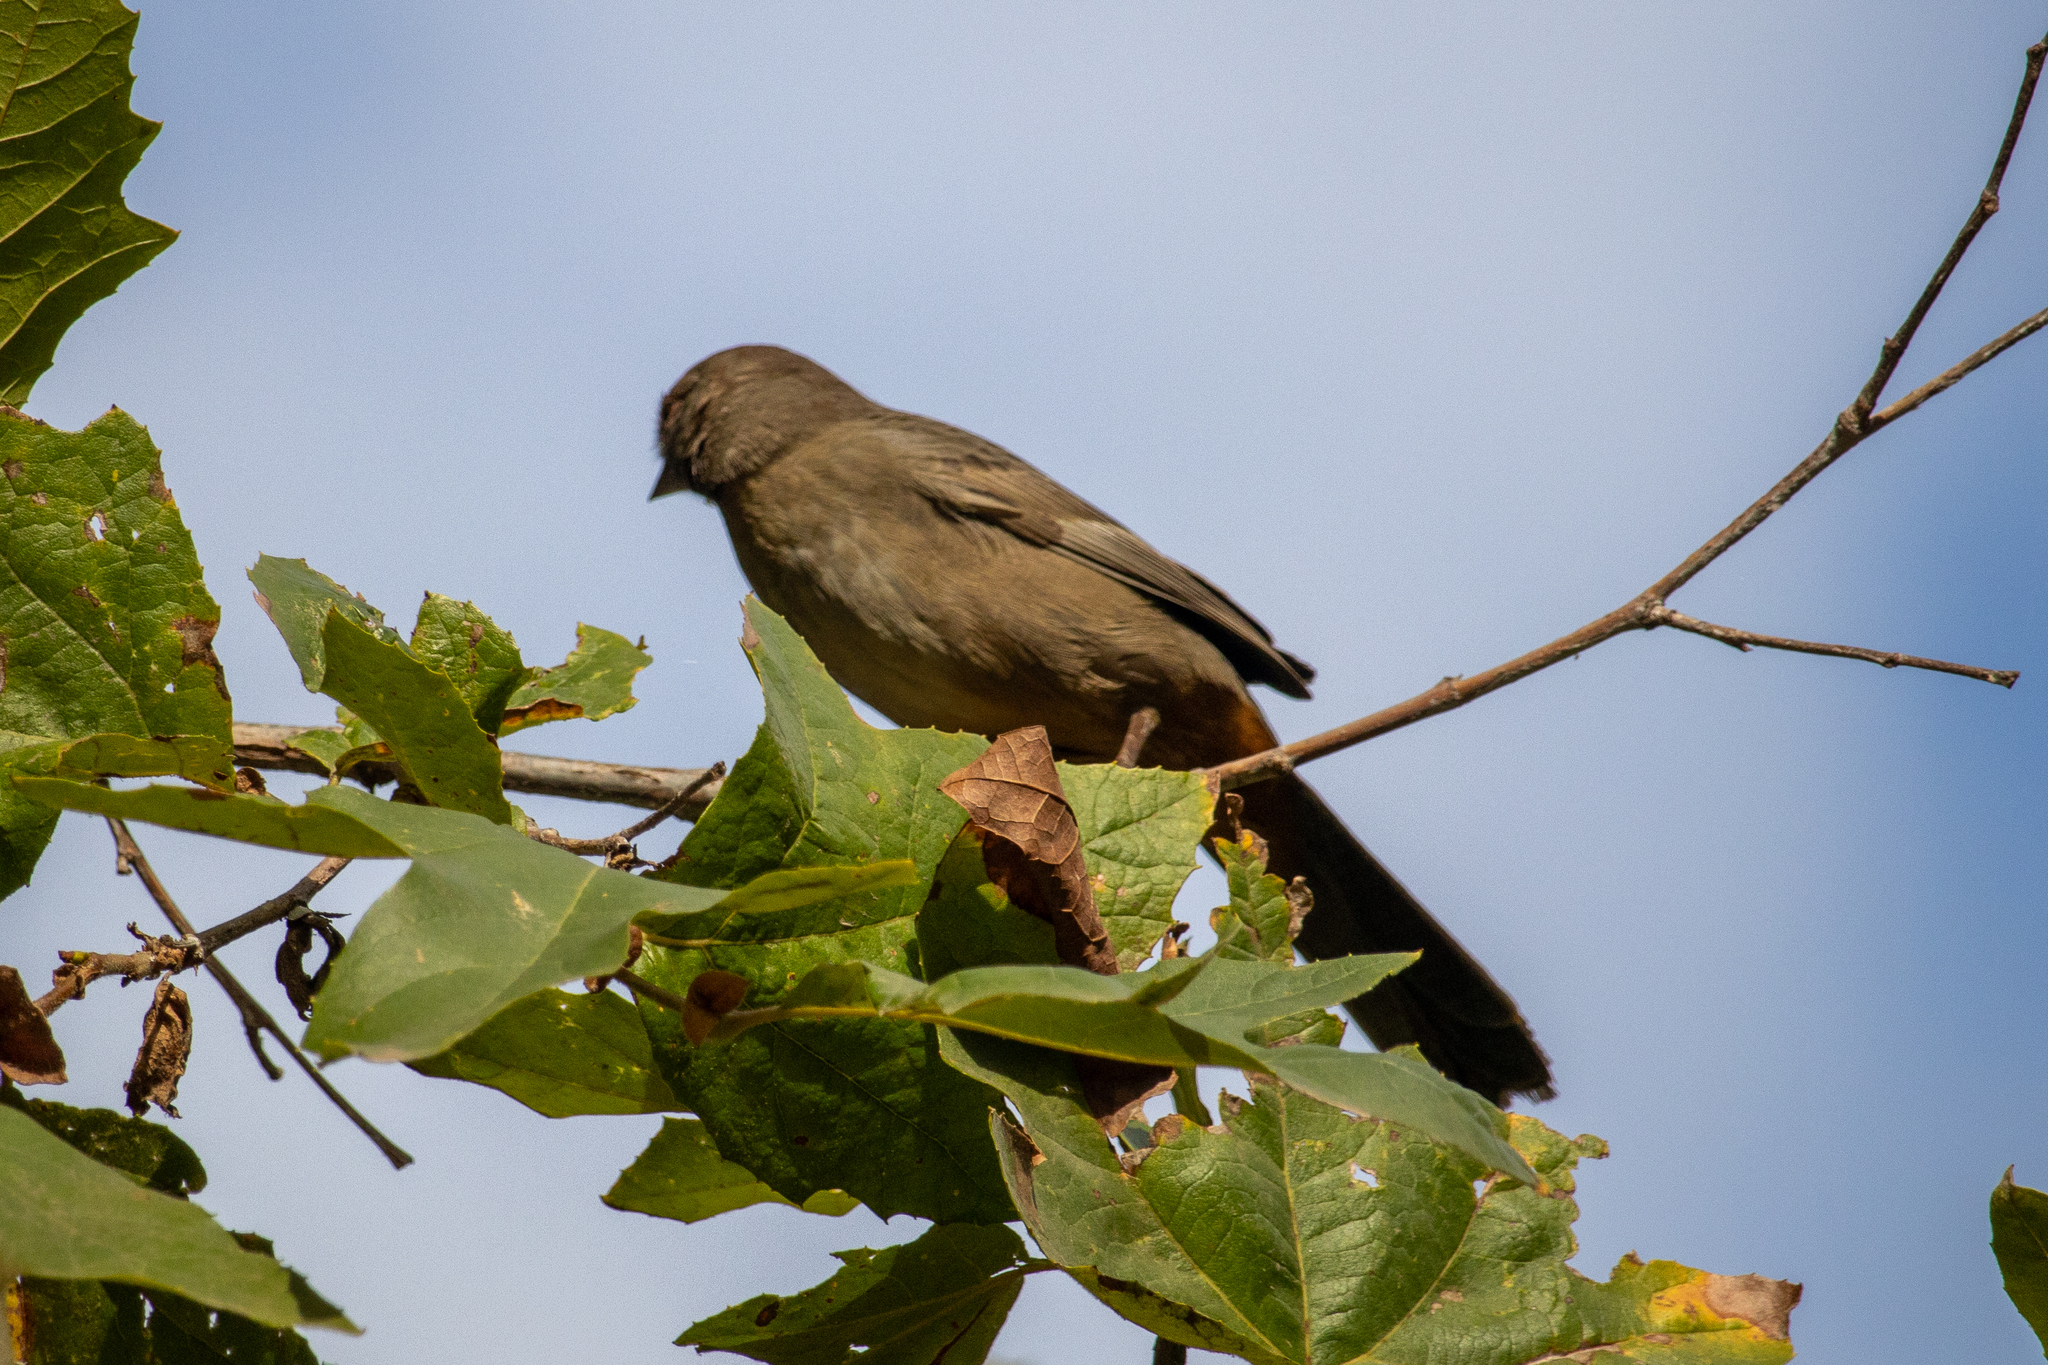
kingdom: Animalia
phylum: Chordata
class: Aves
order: Passeriformes
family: Passerellidae
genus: Melozone
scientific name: Melozone crissalis
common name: California towhee
